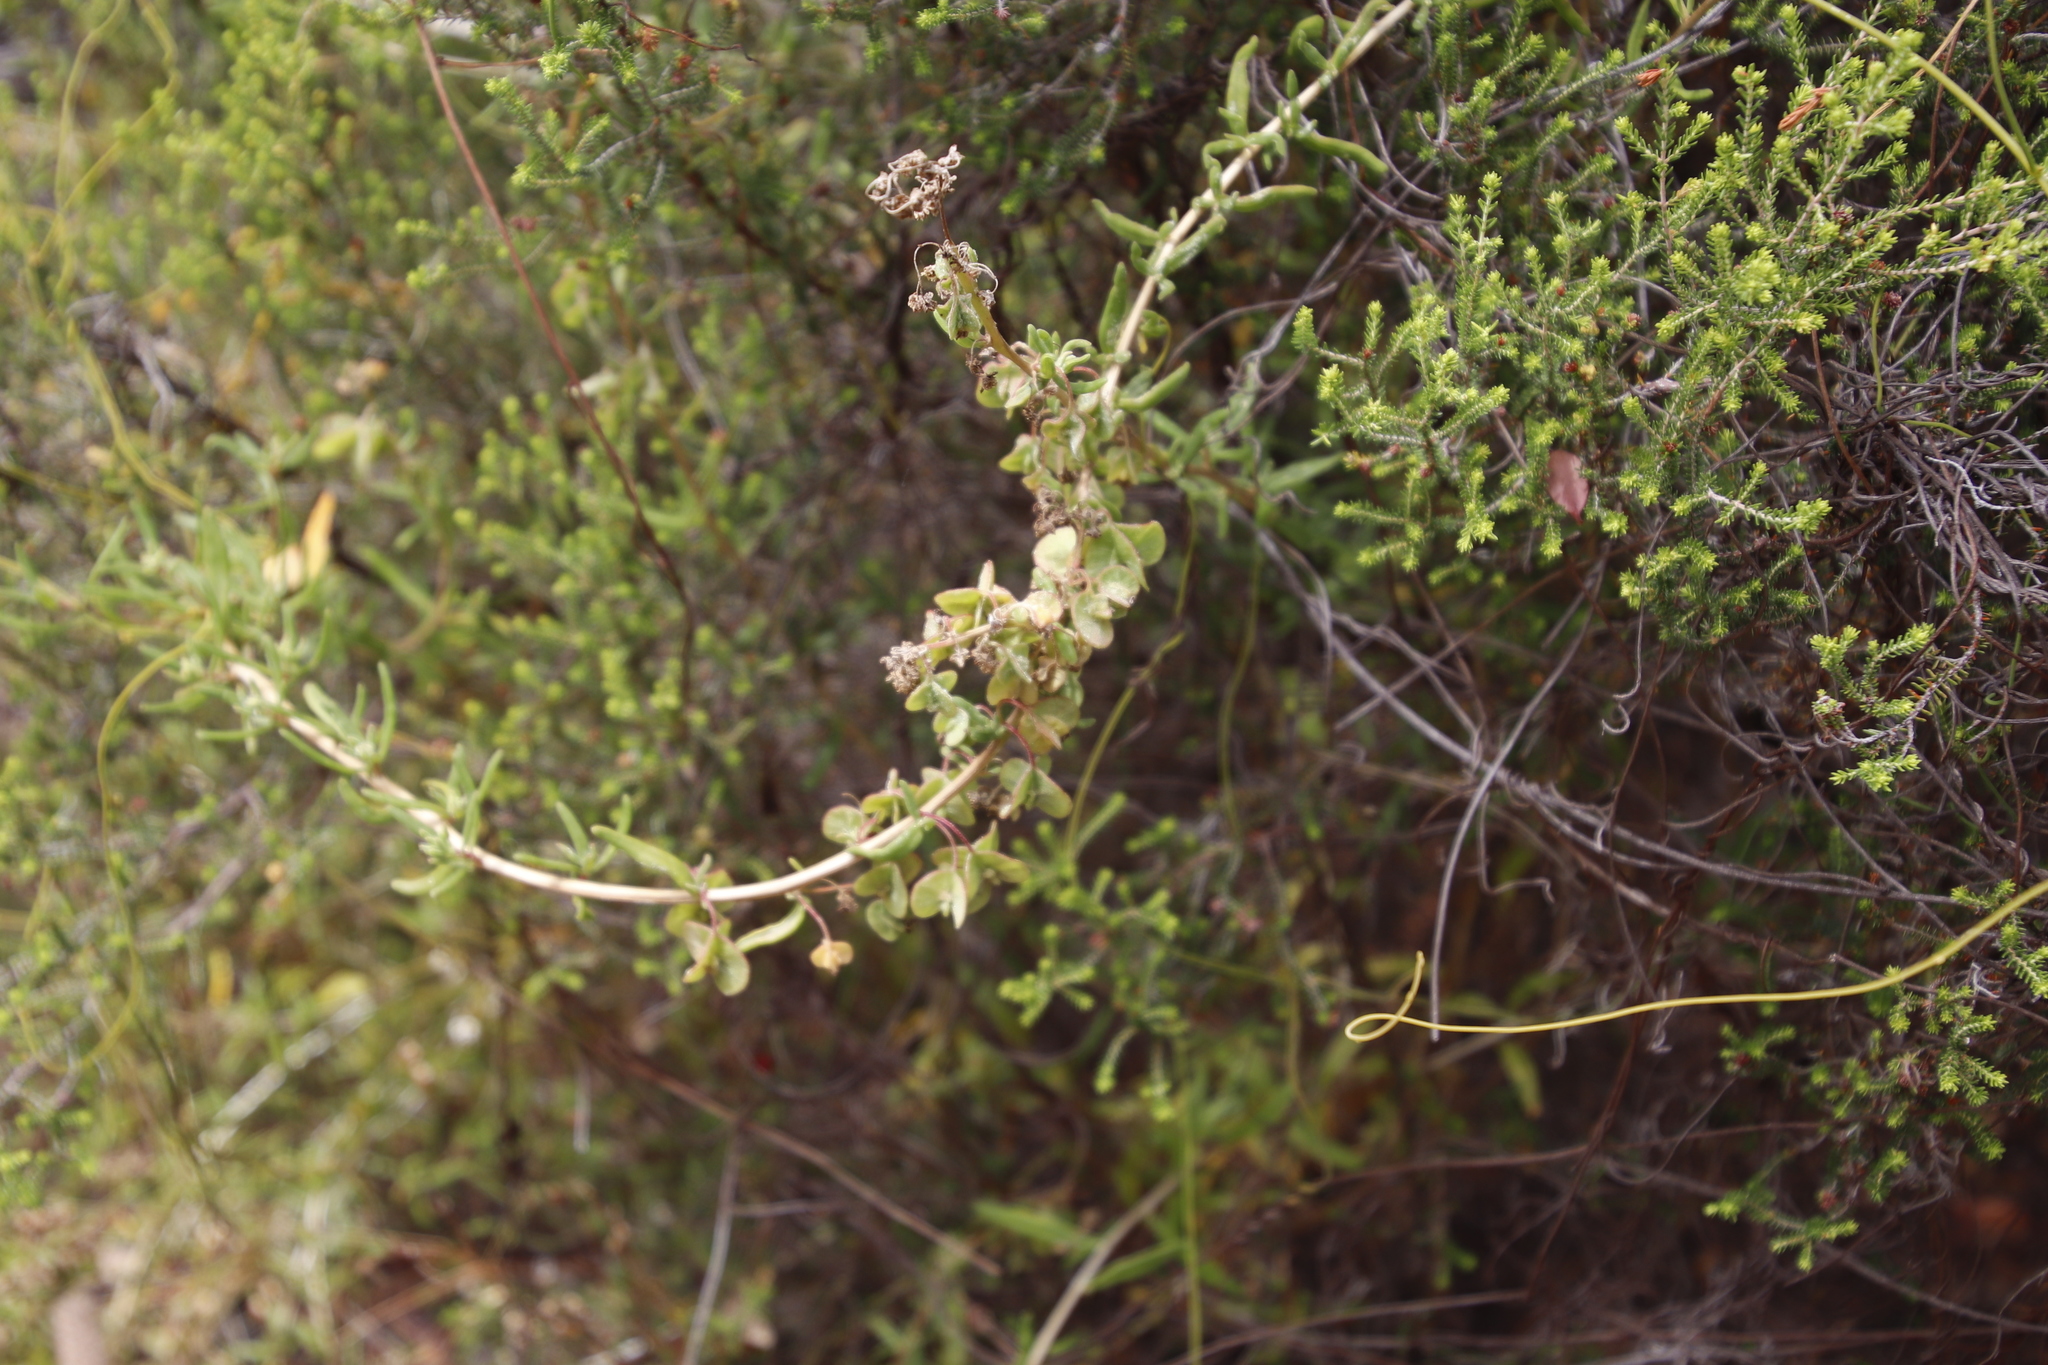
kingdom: Plantae
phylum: Tracheophyta
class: Magnoliopsida
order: Caryophyllales
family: Aizoaceae
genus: Tetragonia
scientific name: Tetragonia fruticosa
